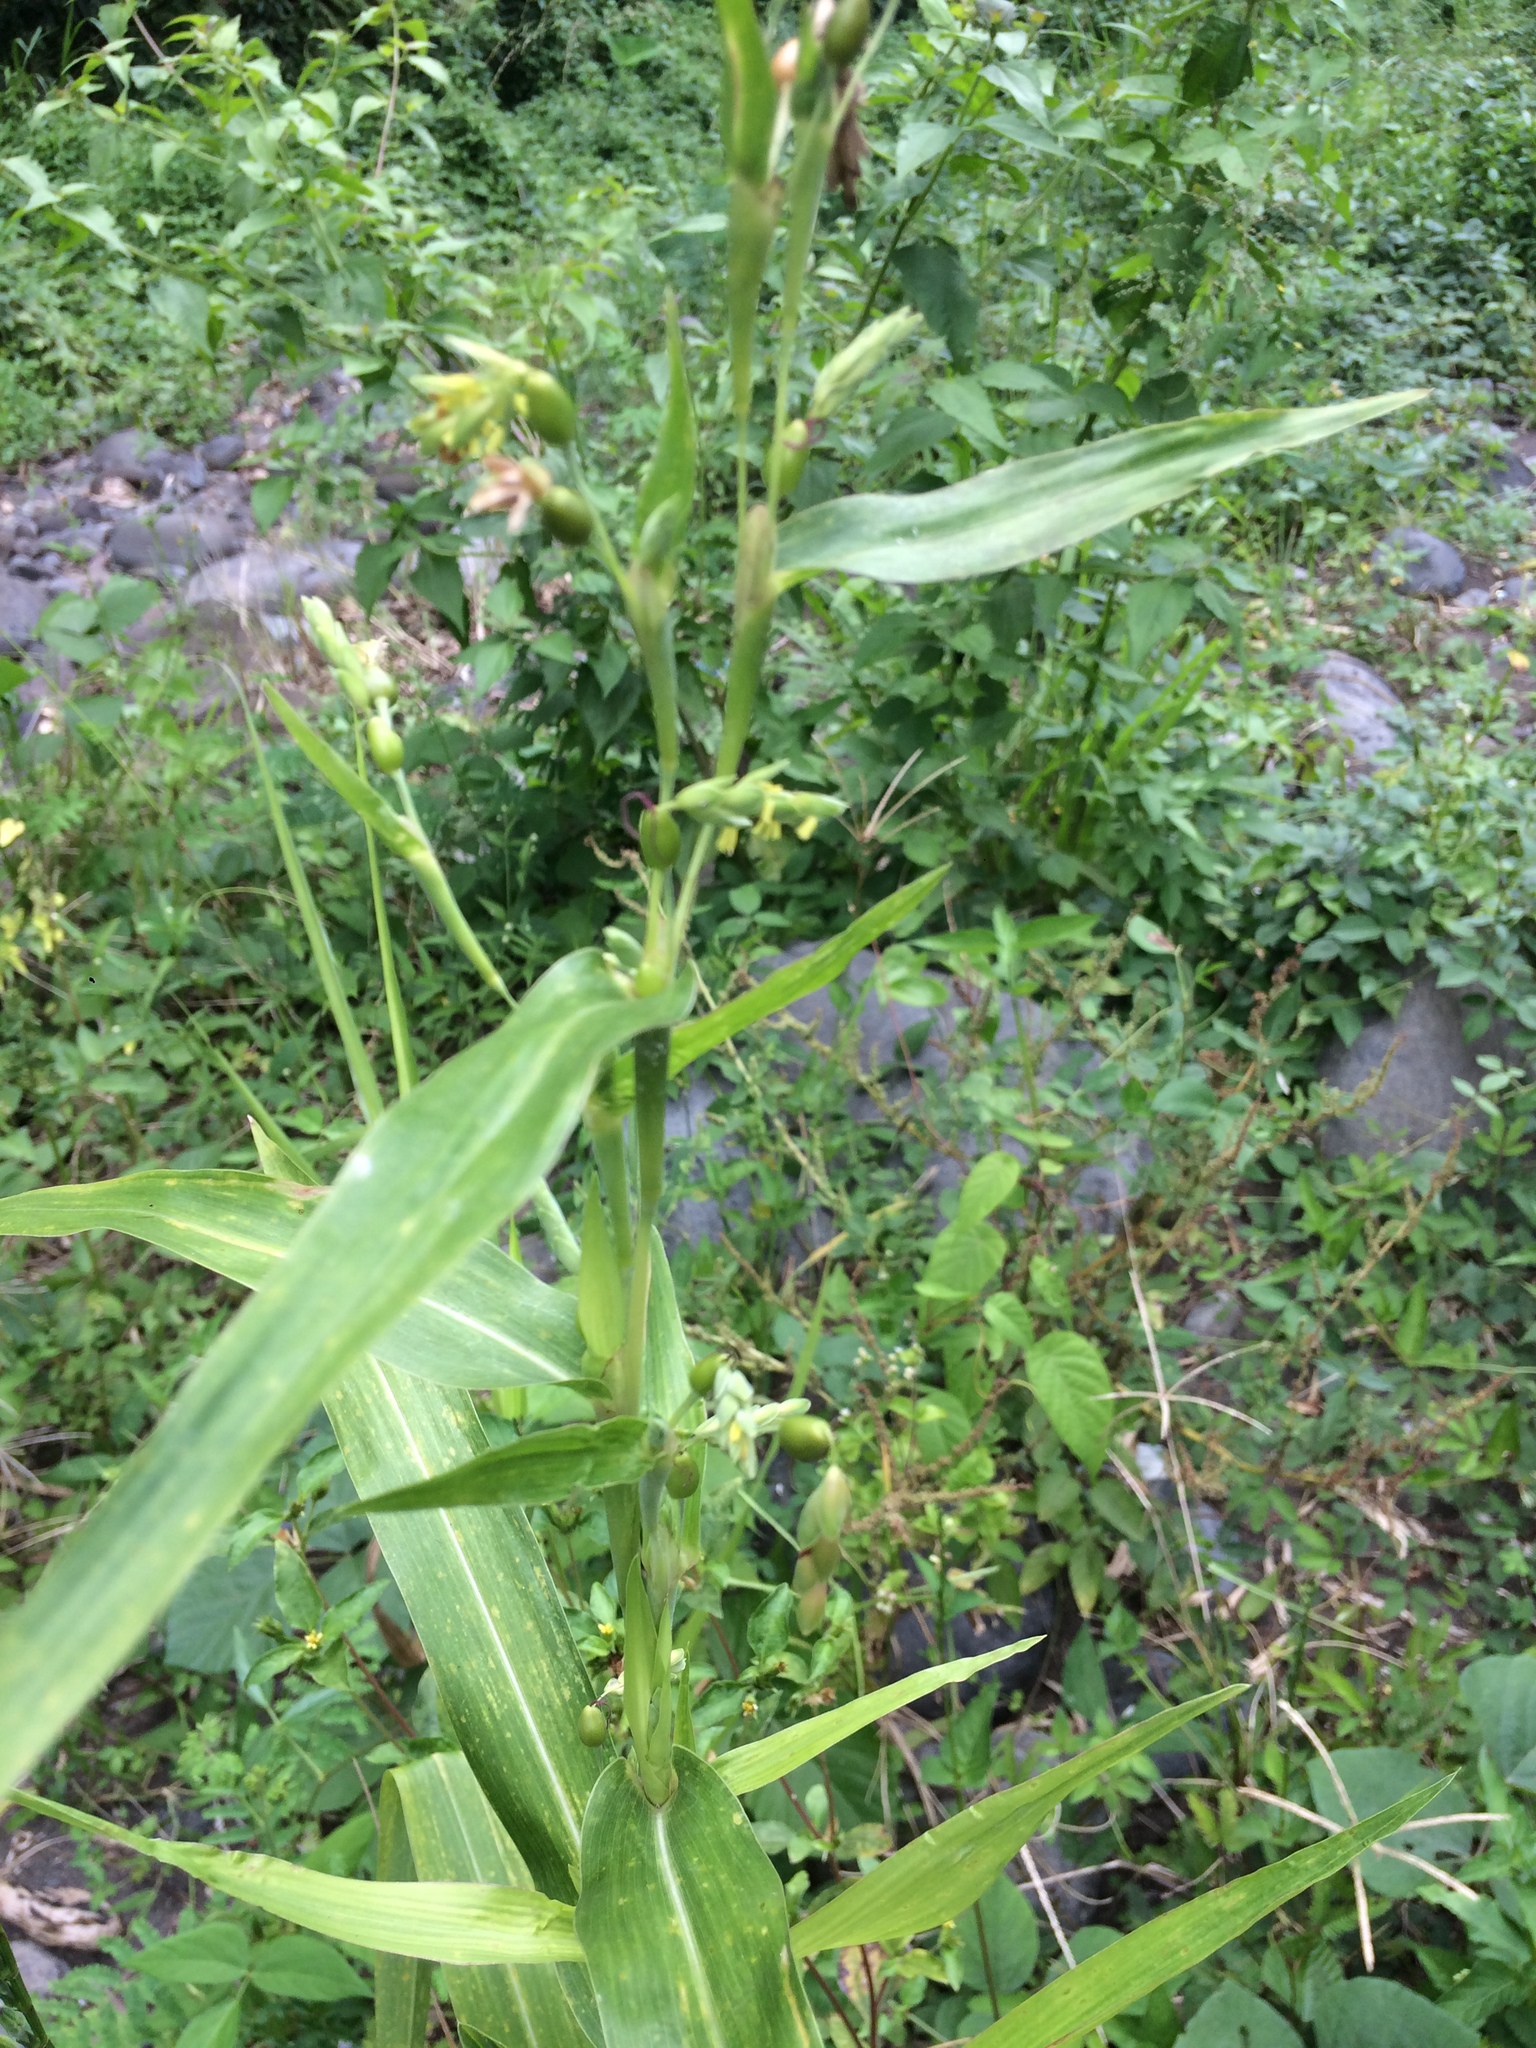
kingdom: Plantae
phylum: Tracheophyta
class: Liliopsida
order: Poales
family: Poaceae
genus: Coix
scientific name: Coix lacryma-jobi
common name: Job's tears
